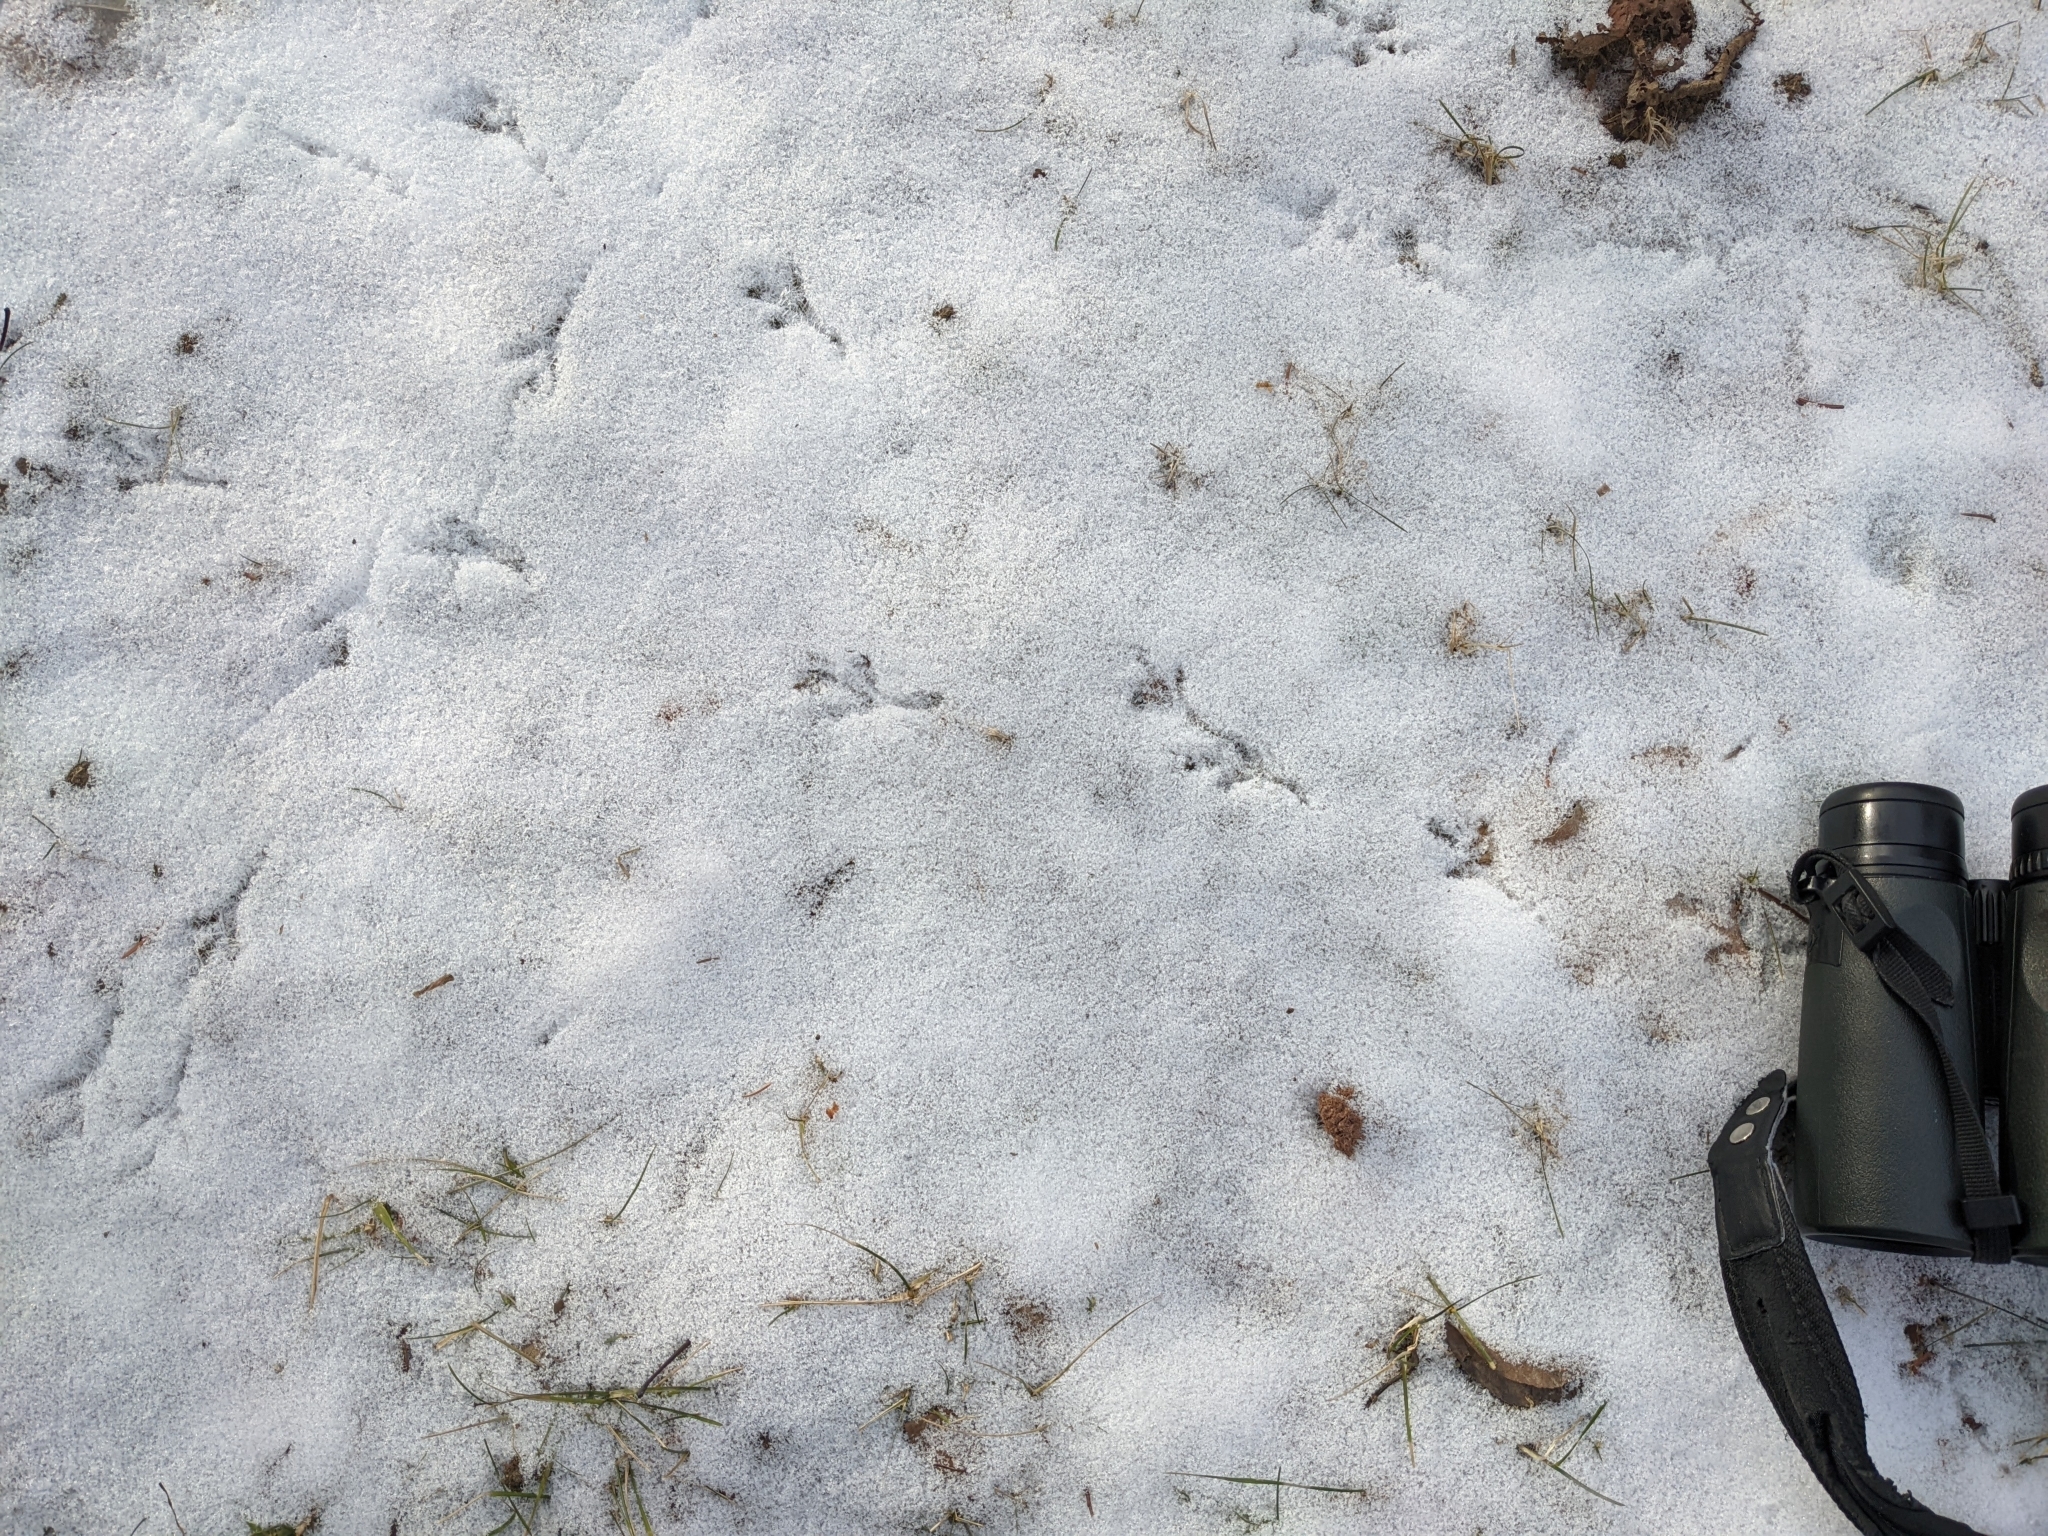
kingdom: Animalia
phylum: Chordata
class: Aves
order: Passeriformes
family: Turdidae
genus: Turdus
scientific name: Turdus migratorius
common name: American robin
